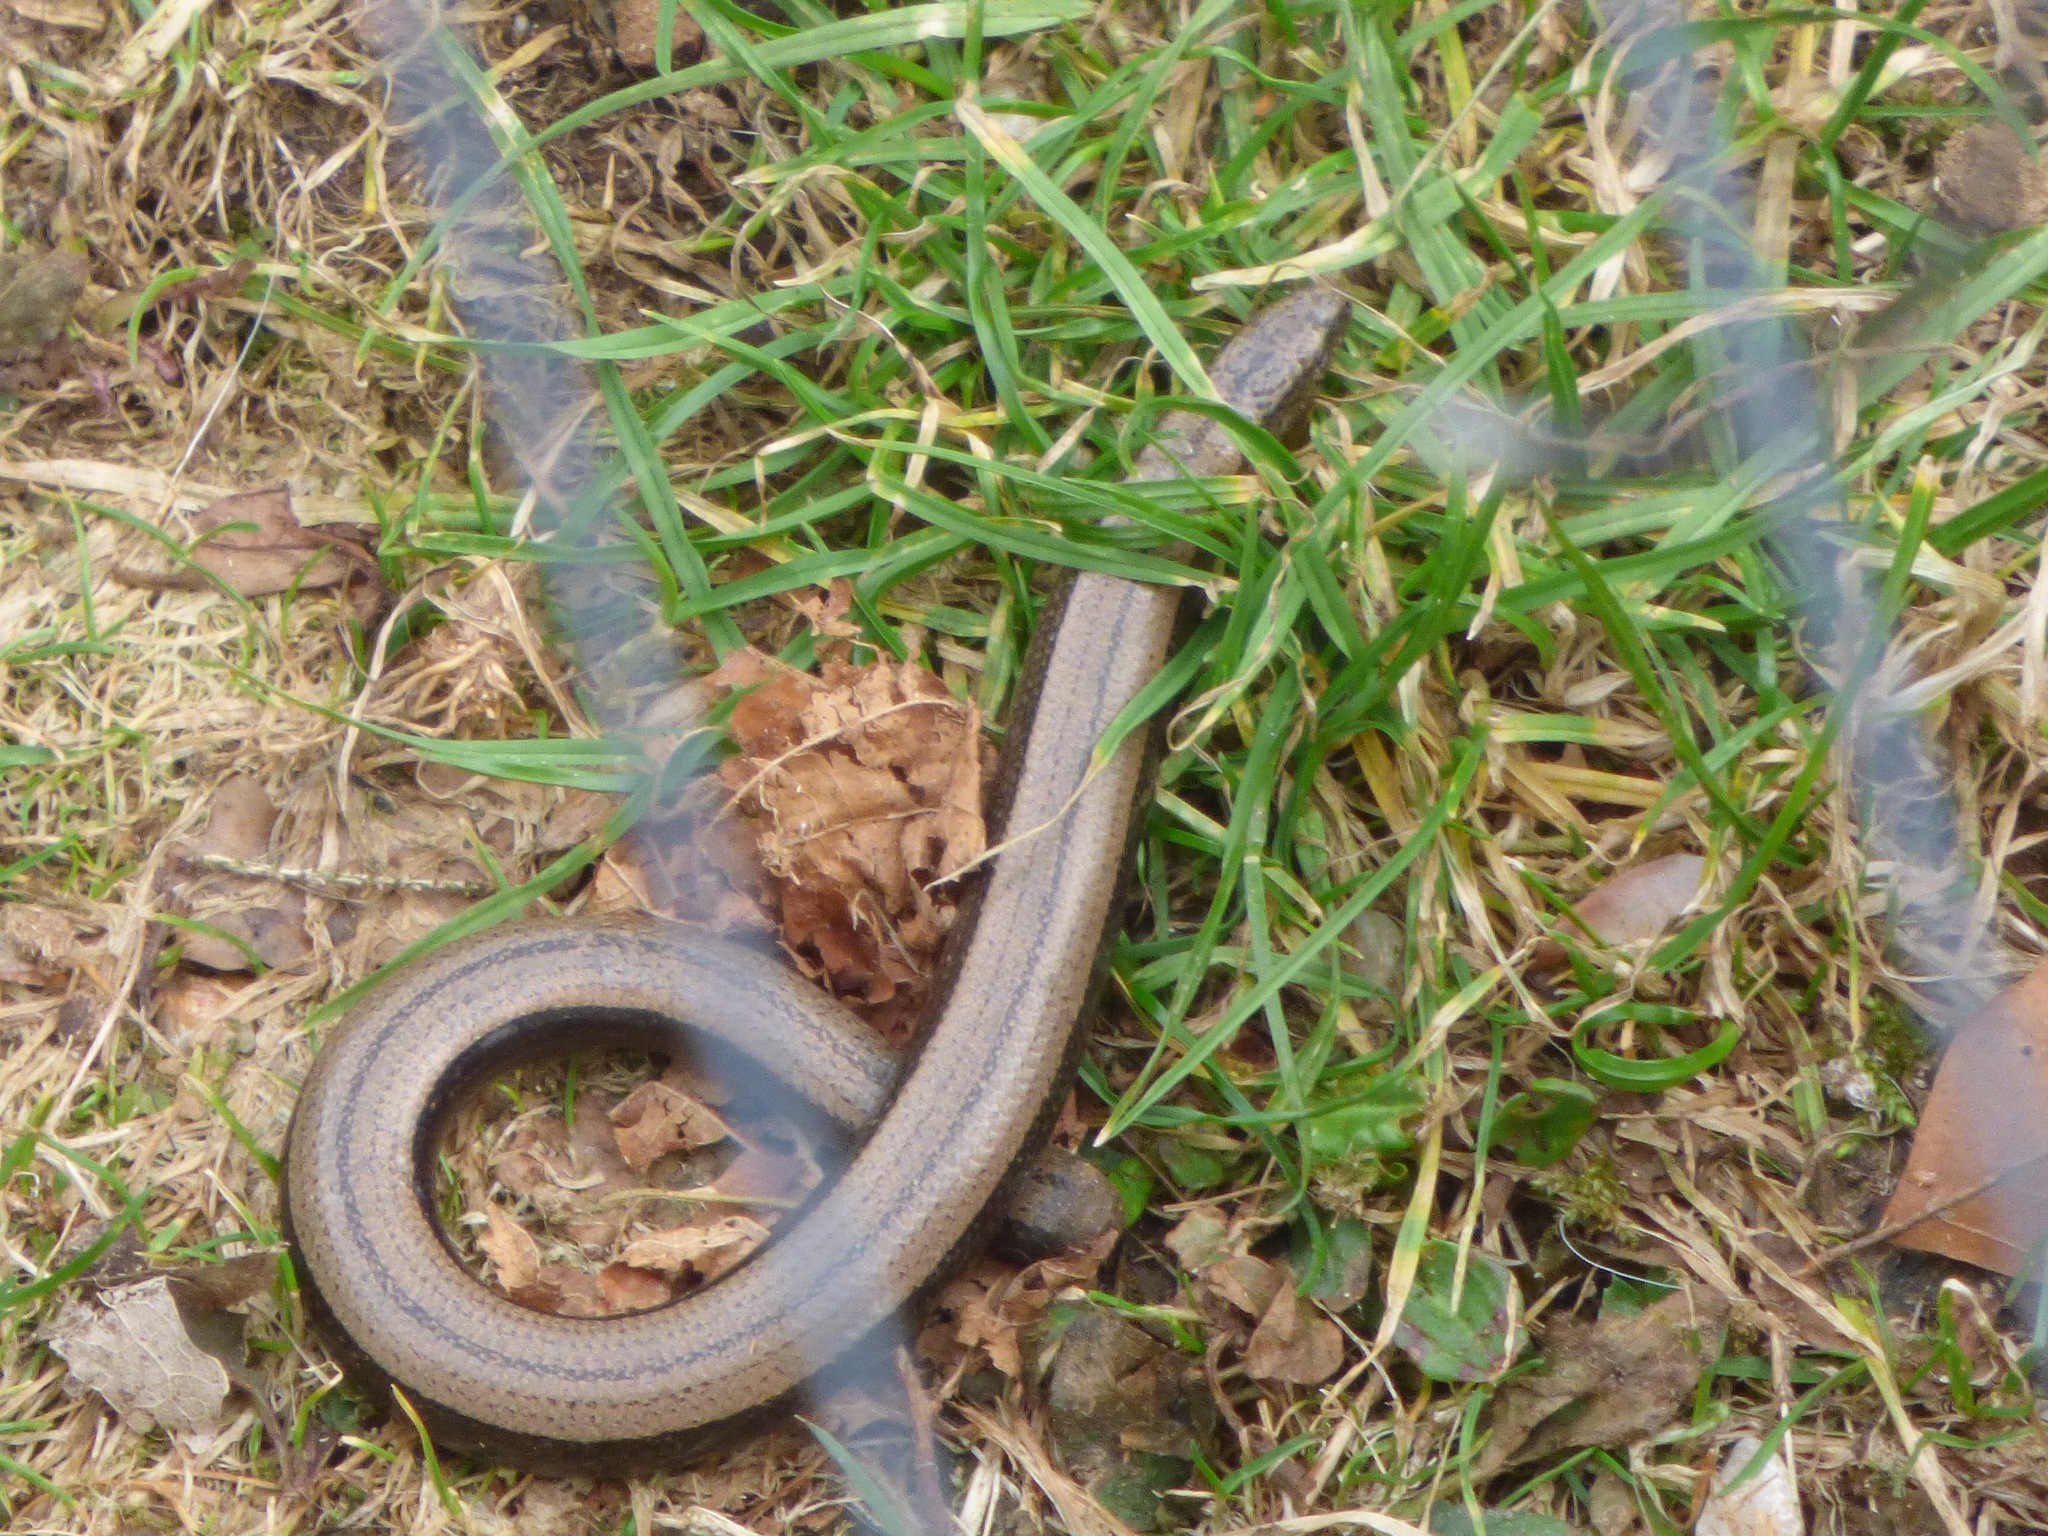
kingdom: Animalia
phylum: Chordata
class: Squamata
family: Anguidae
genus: Anguis
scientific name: Anguis fragilis
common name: Slow worm
